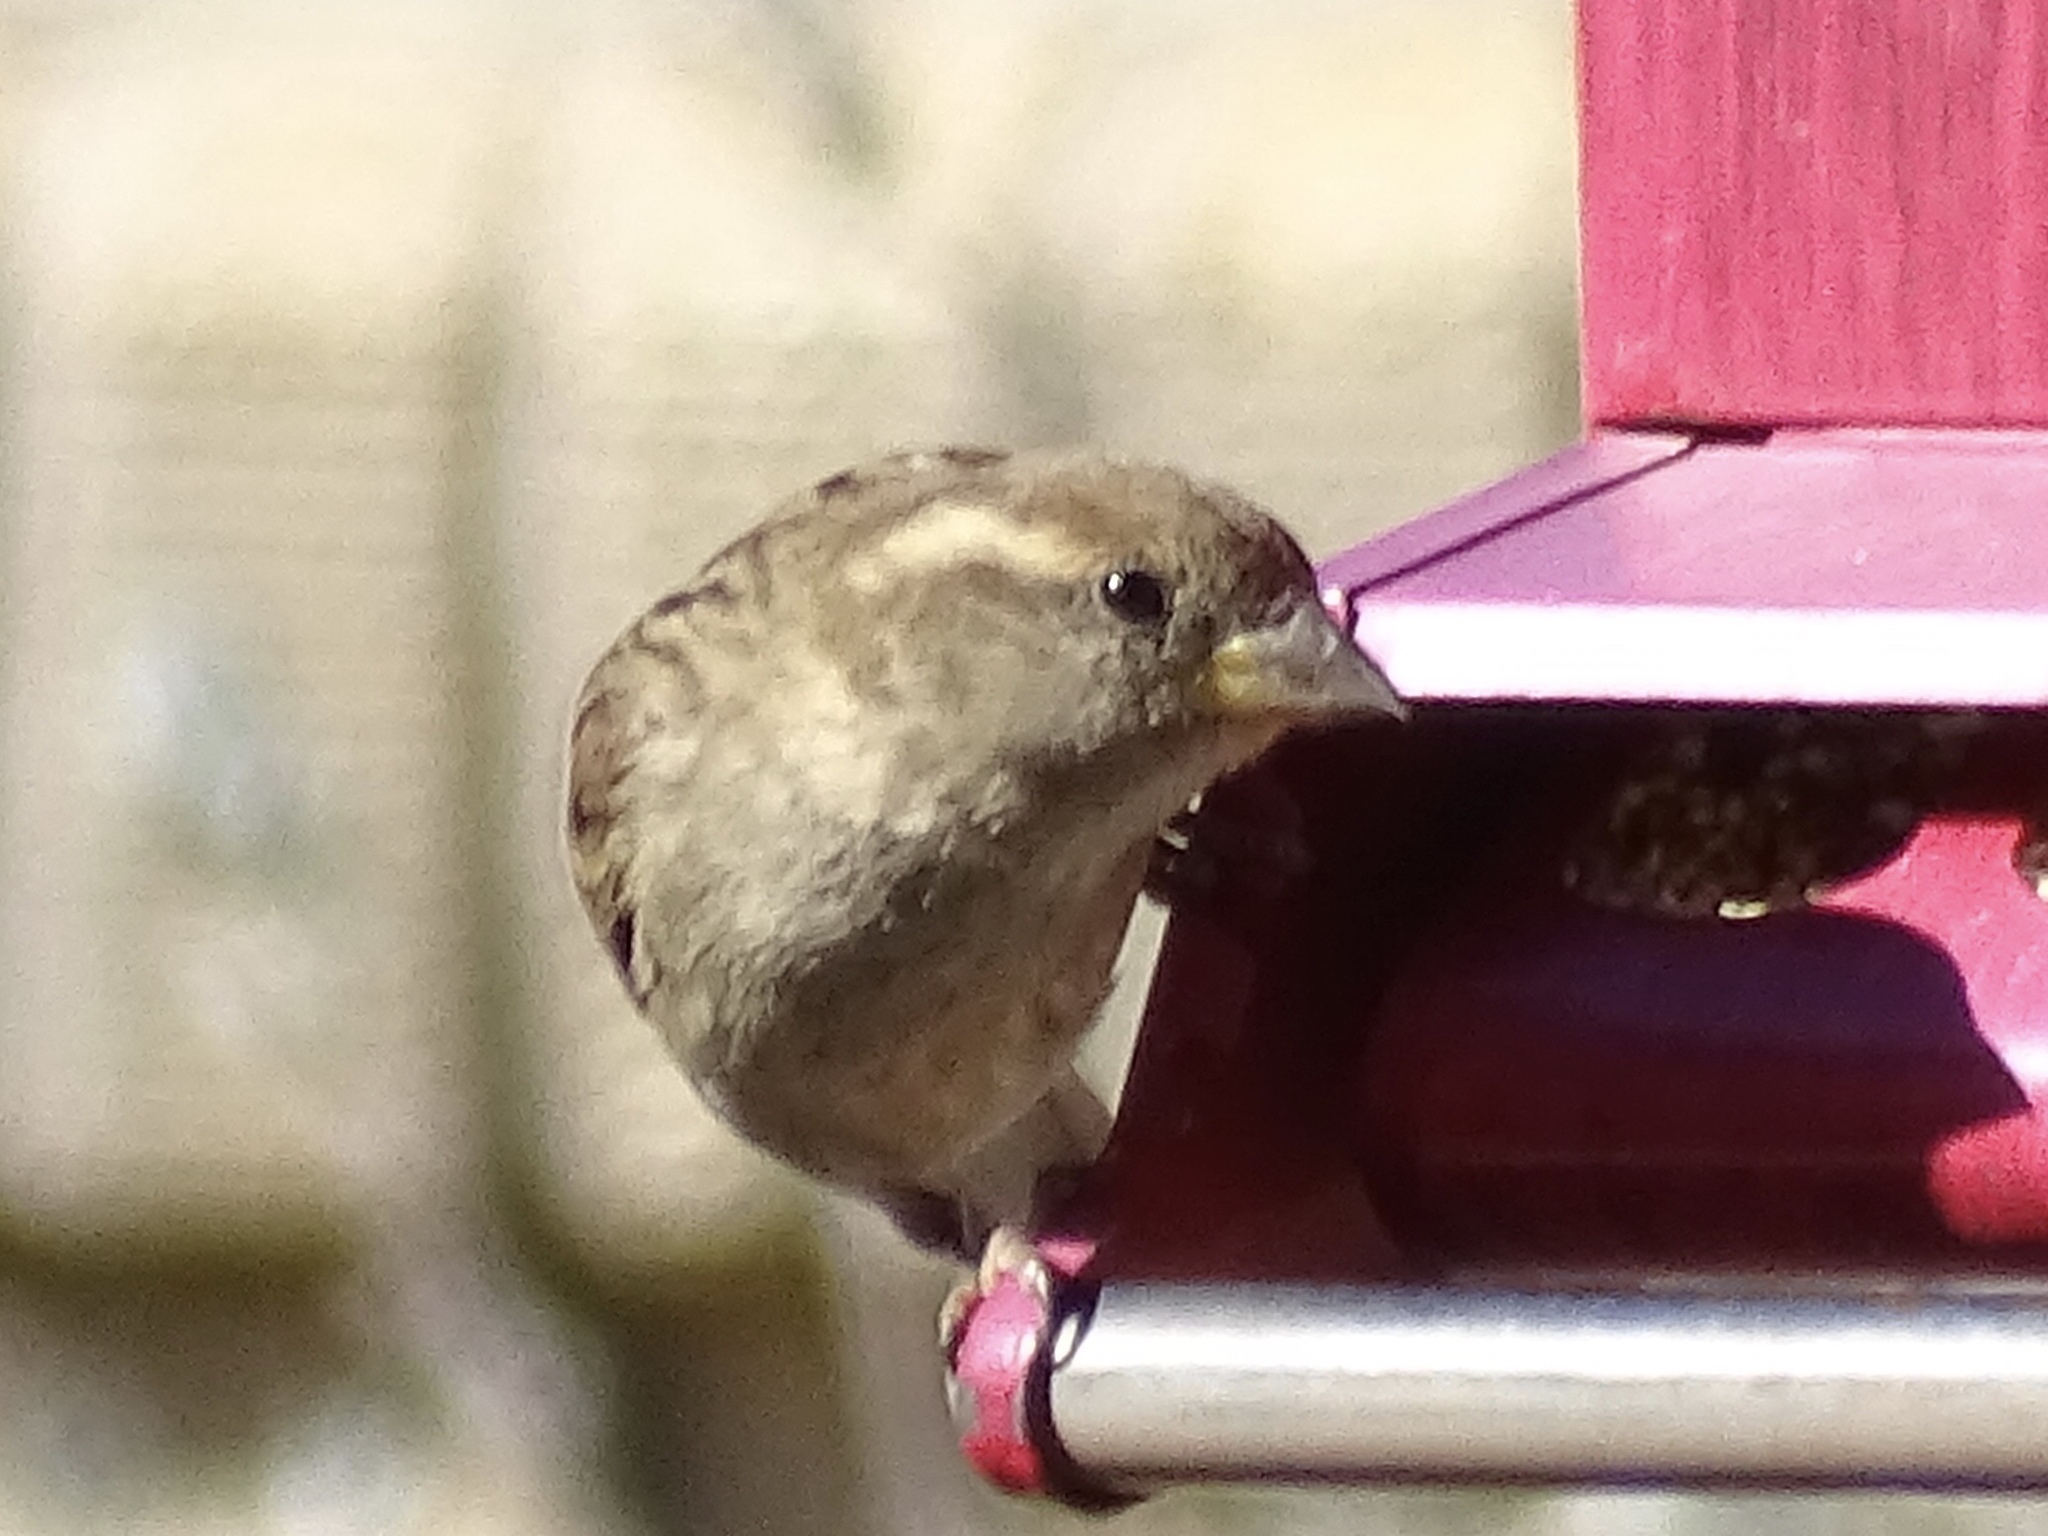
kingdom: Animalia
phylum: Chordata
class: Aves
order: Passeriformes
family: Passeridae
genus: Passer
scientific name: Passer domesticus
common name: House sparrow
